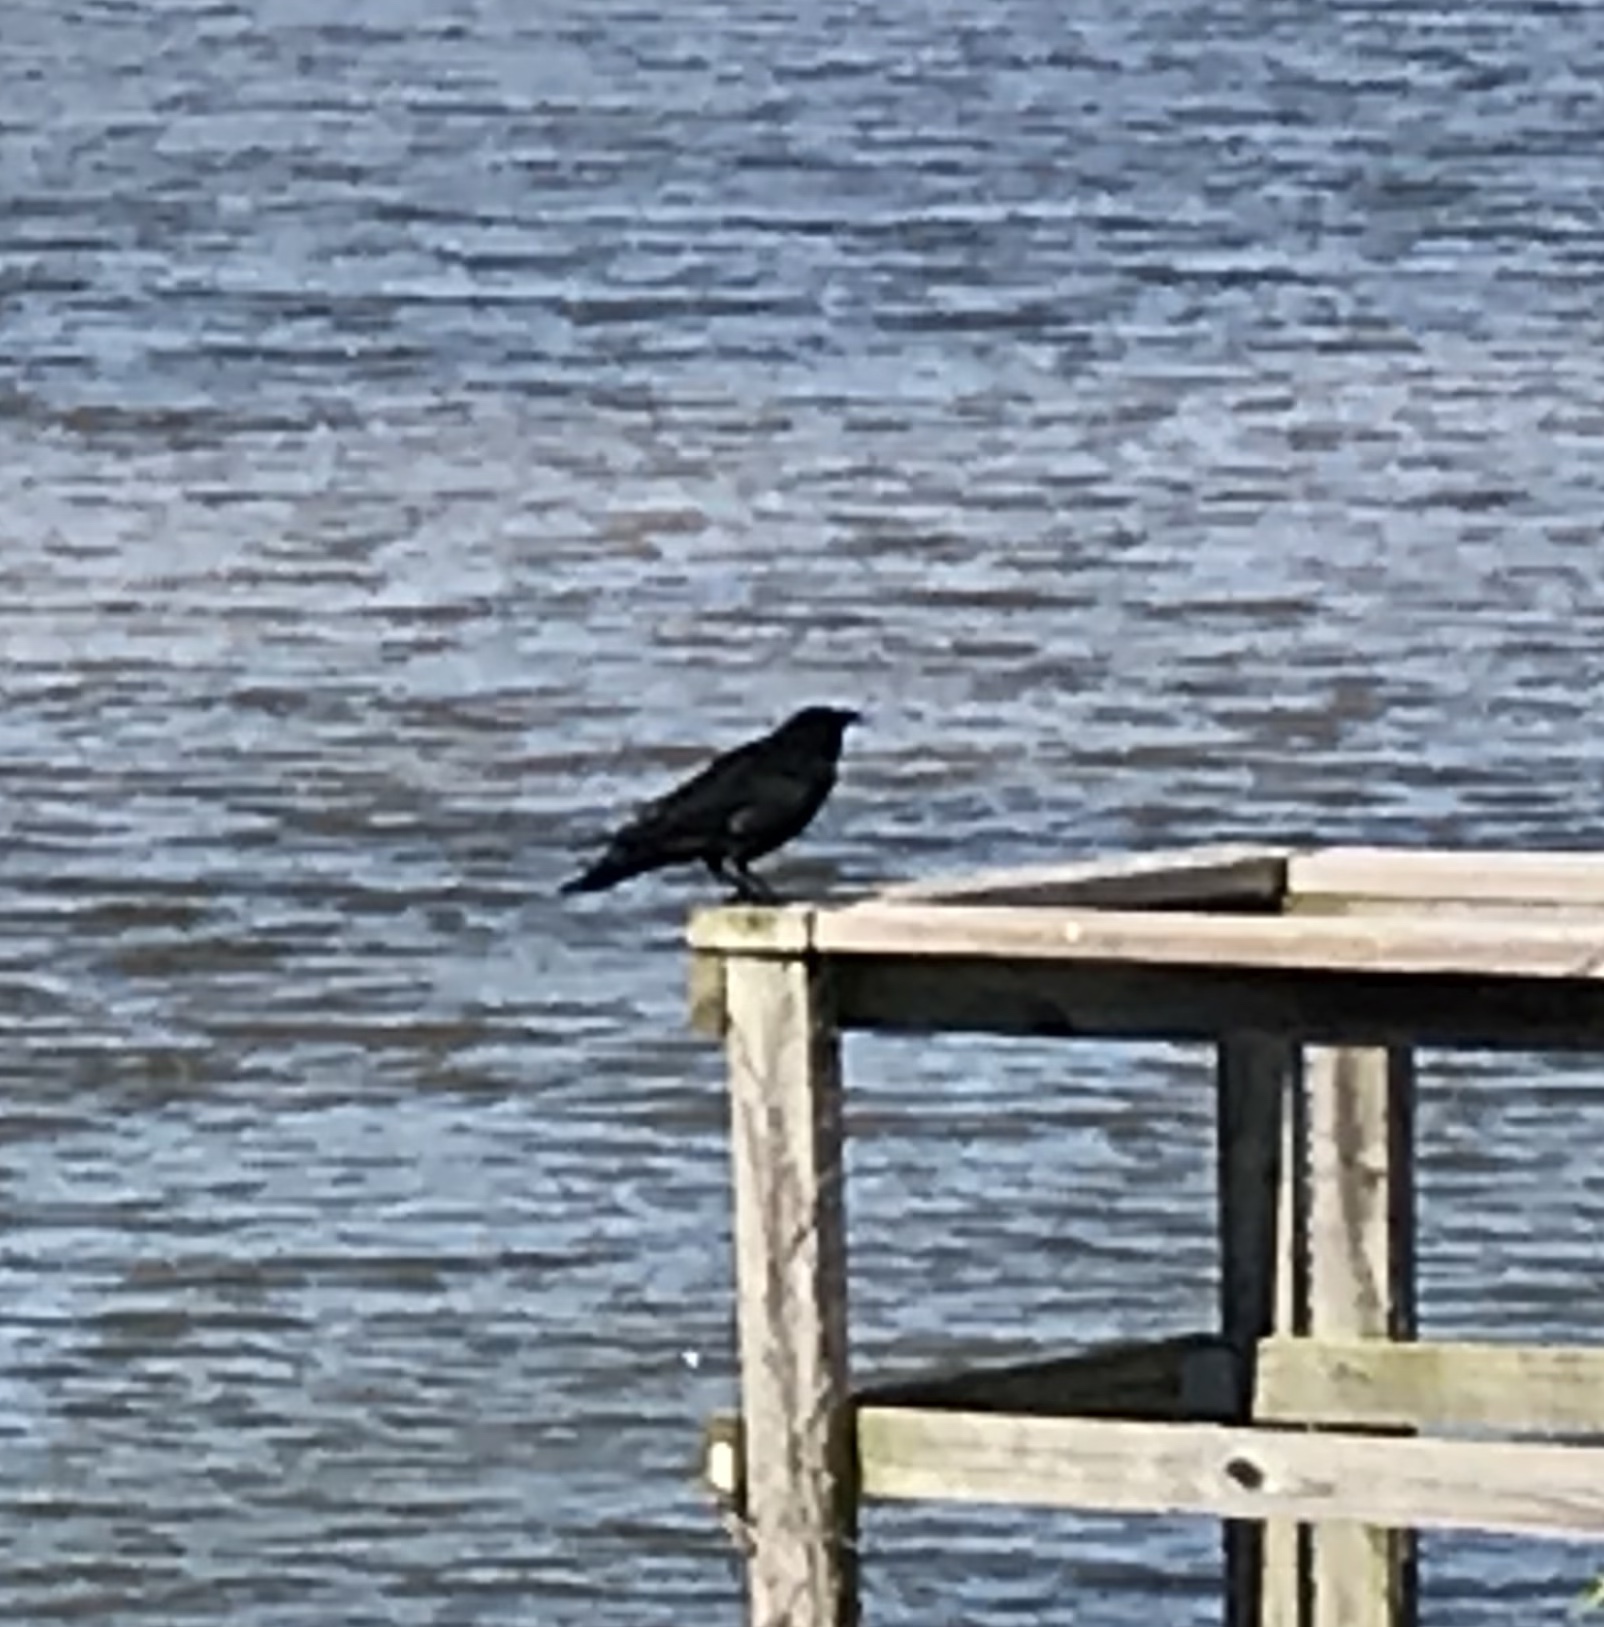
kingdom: Animalia
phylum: Chordata
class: Aves
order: Passeriformes
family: Corvidae
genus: Corvus
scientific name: Corvus ossifragus
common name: Fish crow
